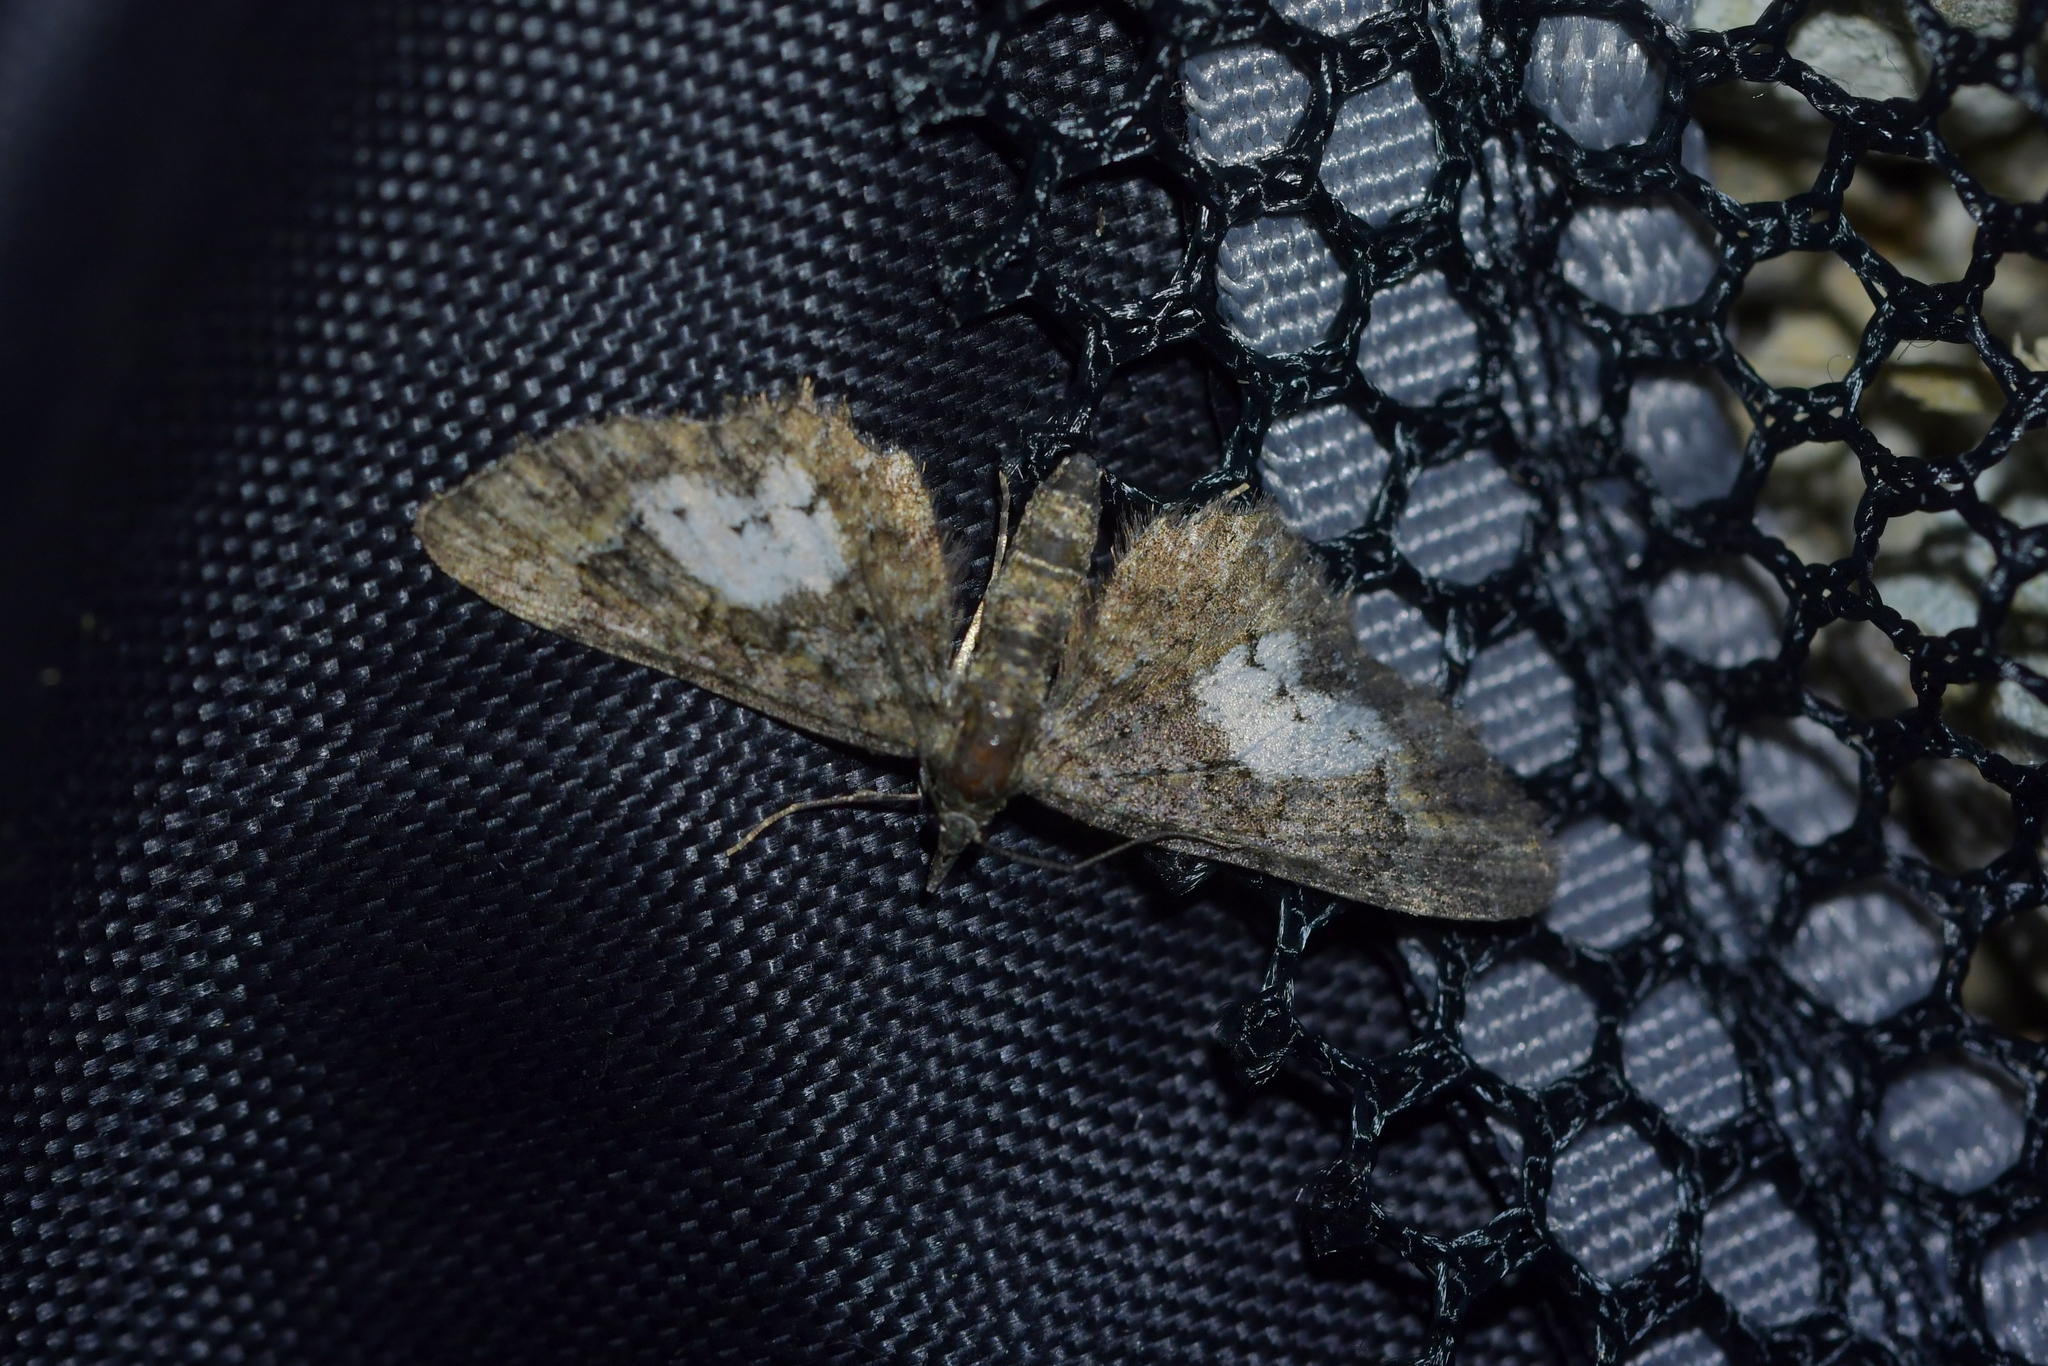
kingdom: Animalia
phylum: Arthropoda
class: Insecta
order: Lepidoptera
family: Geometridae
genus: Pasiphila
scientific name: Pasiphila lunata
